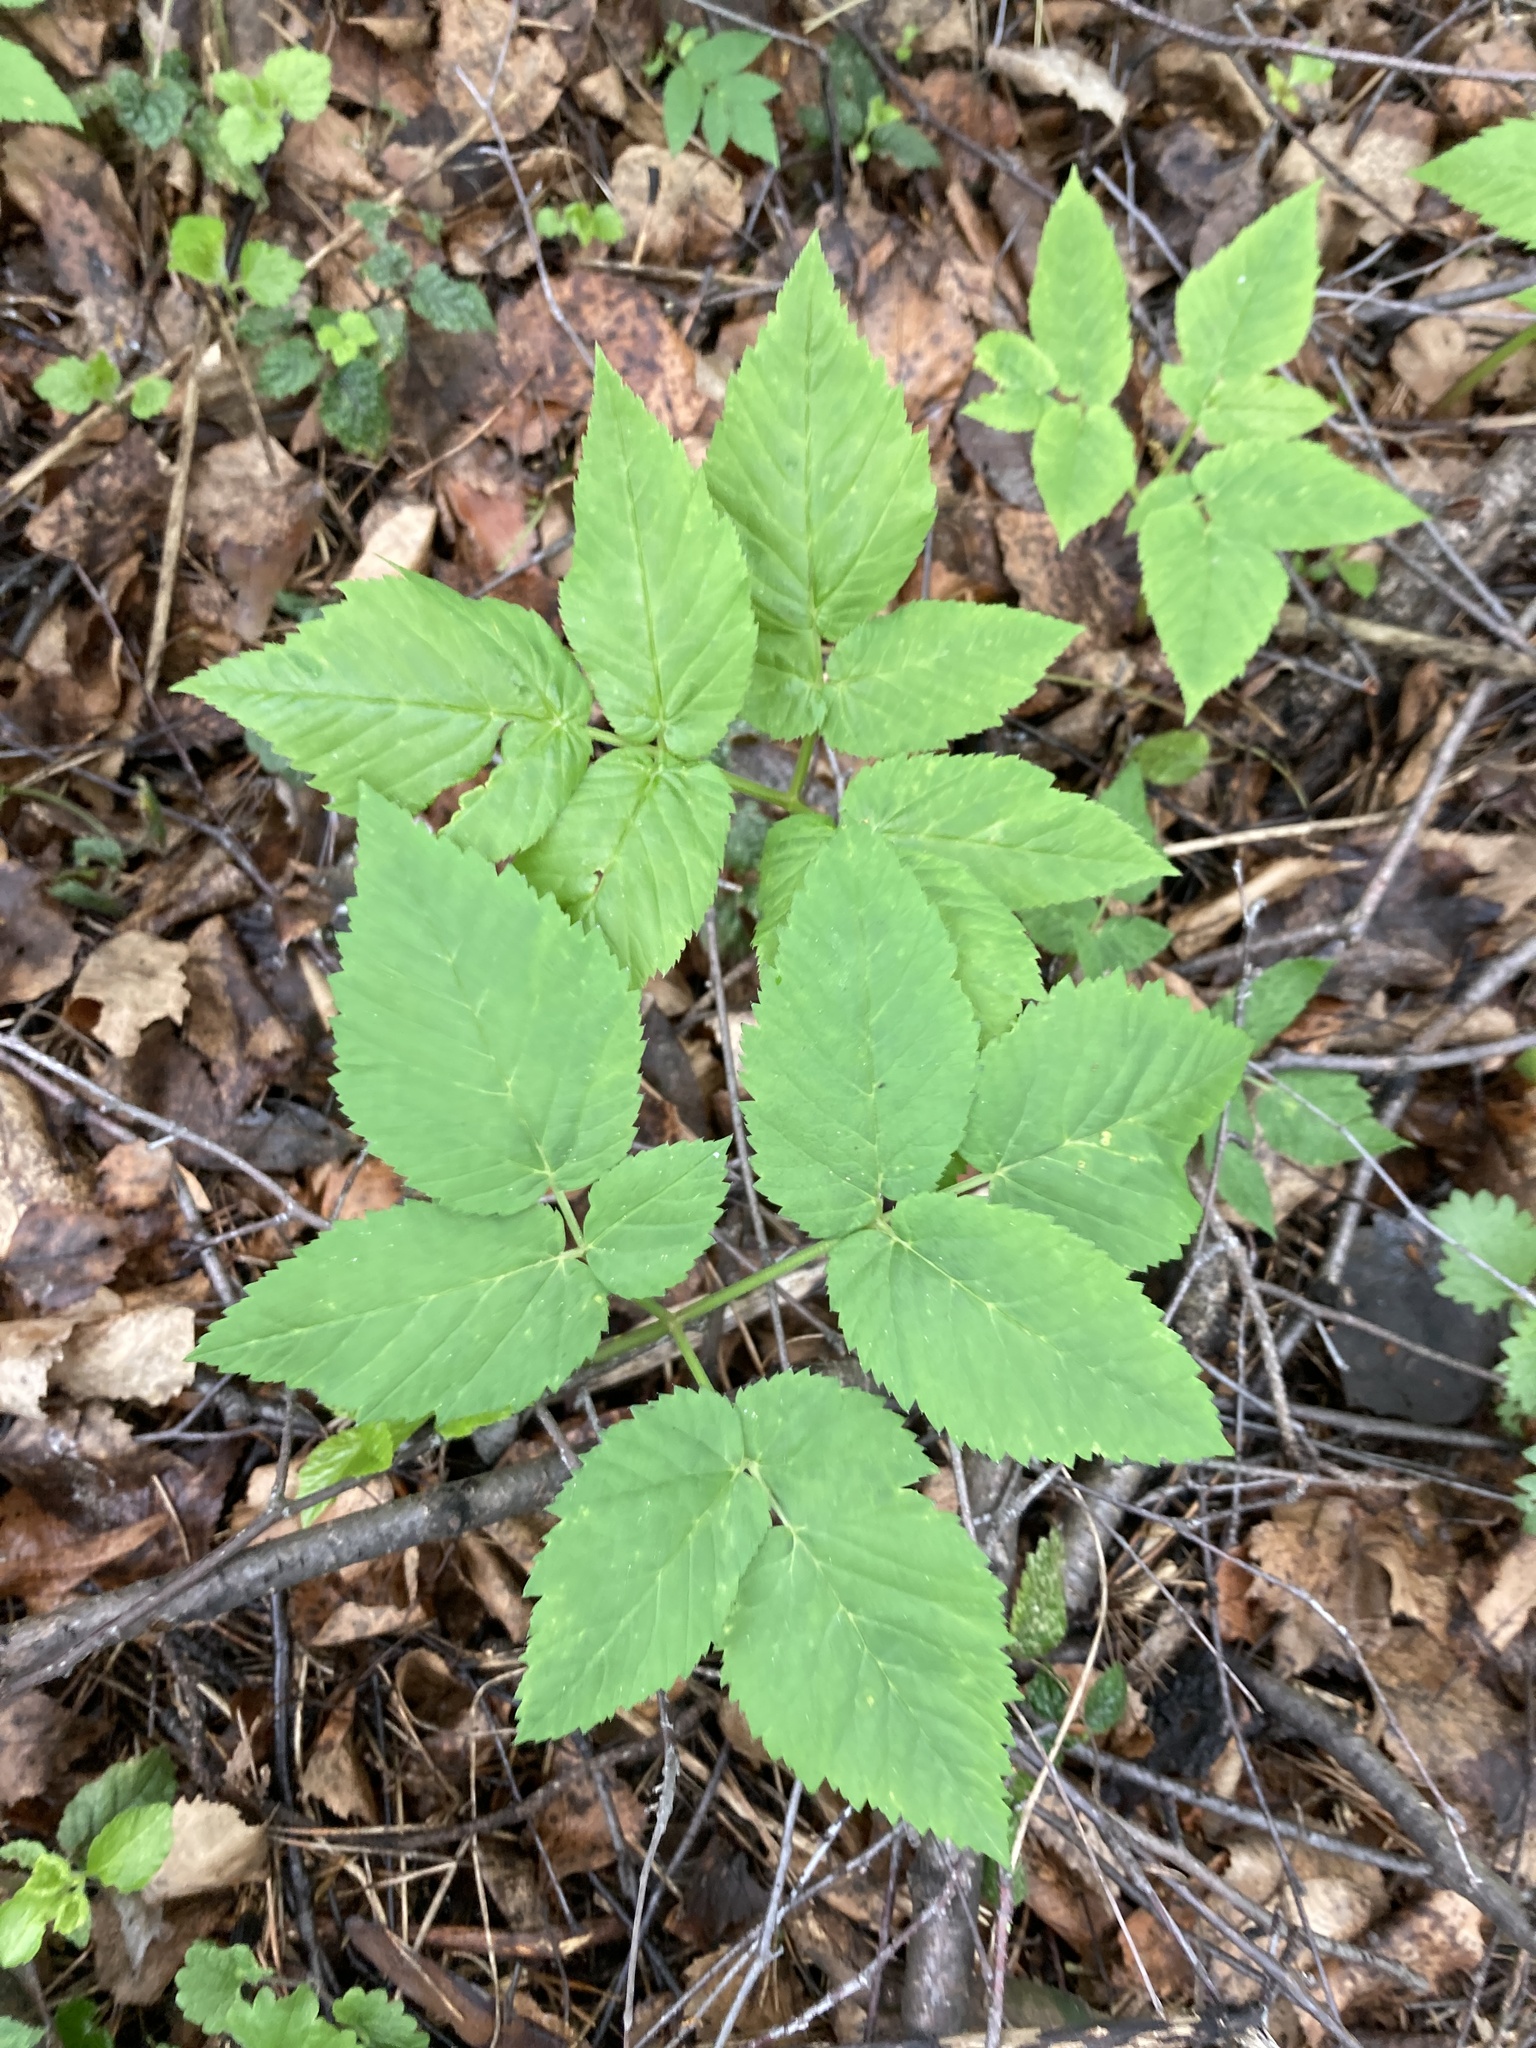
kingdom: Plantae
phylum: Tracheophyta
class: Magnoliopsida
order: Apiales
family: Apiaceae
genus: Aegopodium
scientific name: Aegopodium podagraria
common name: Ground-elder
